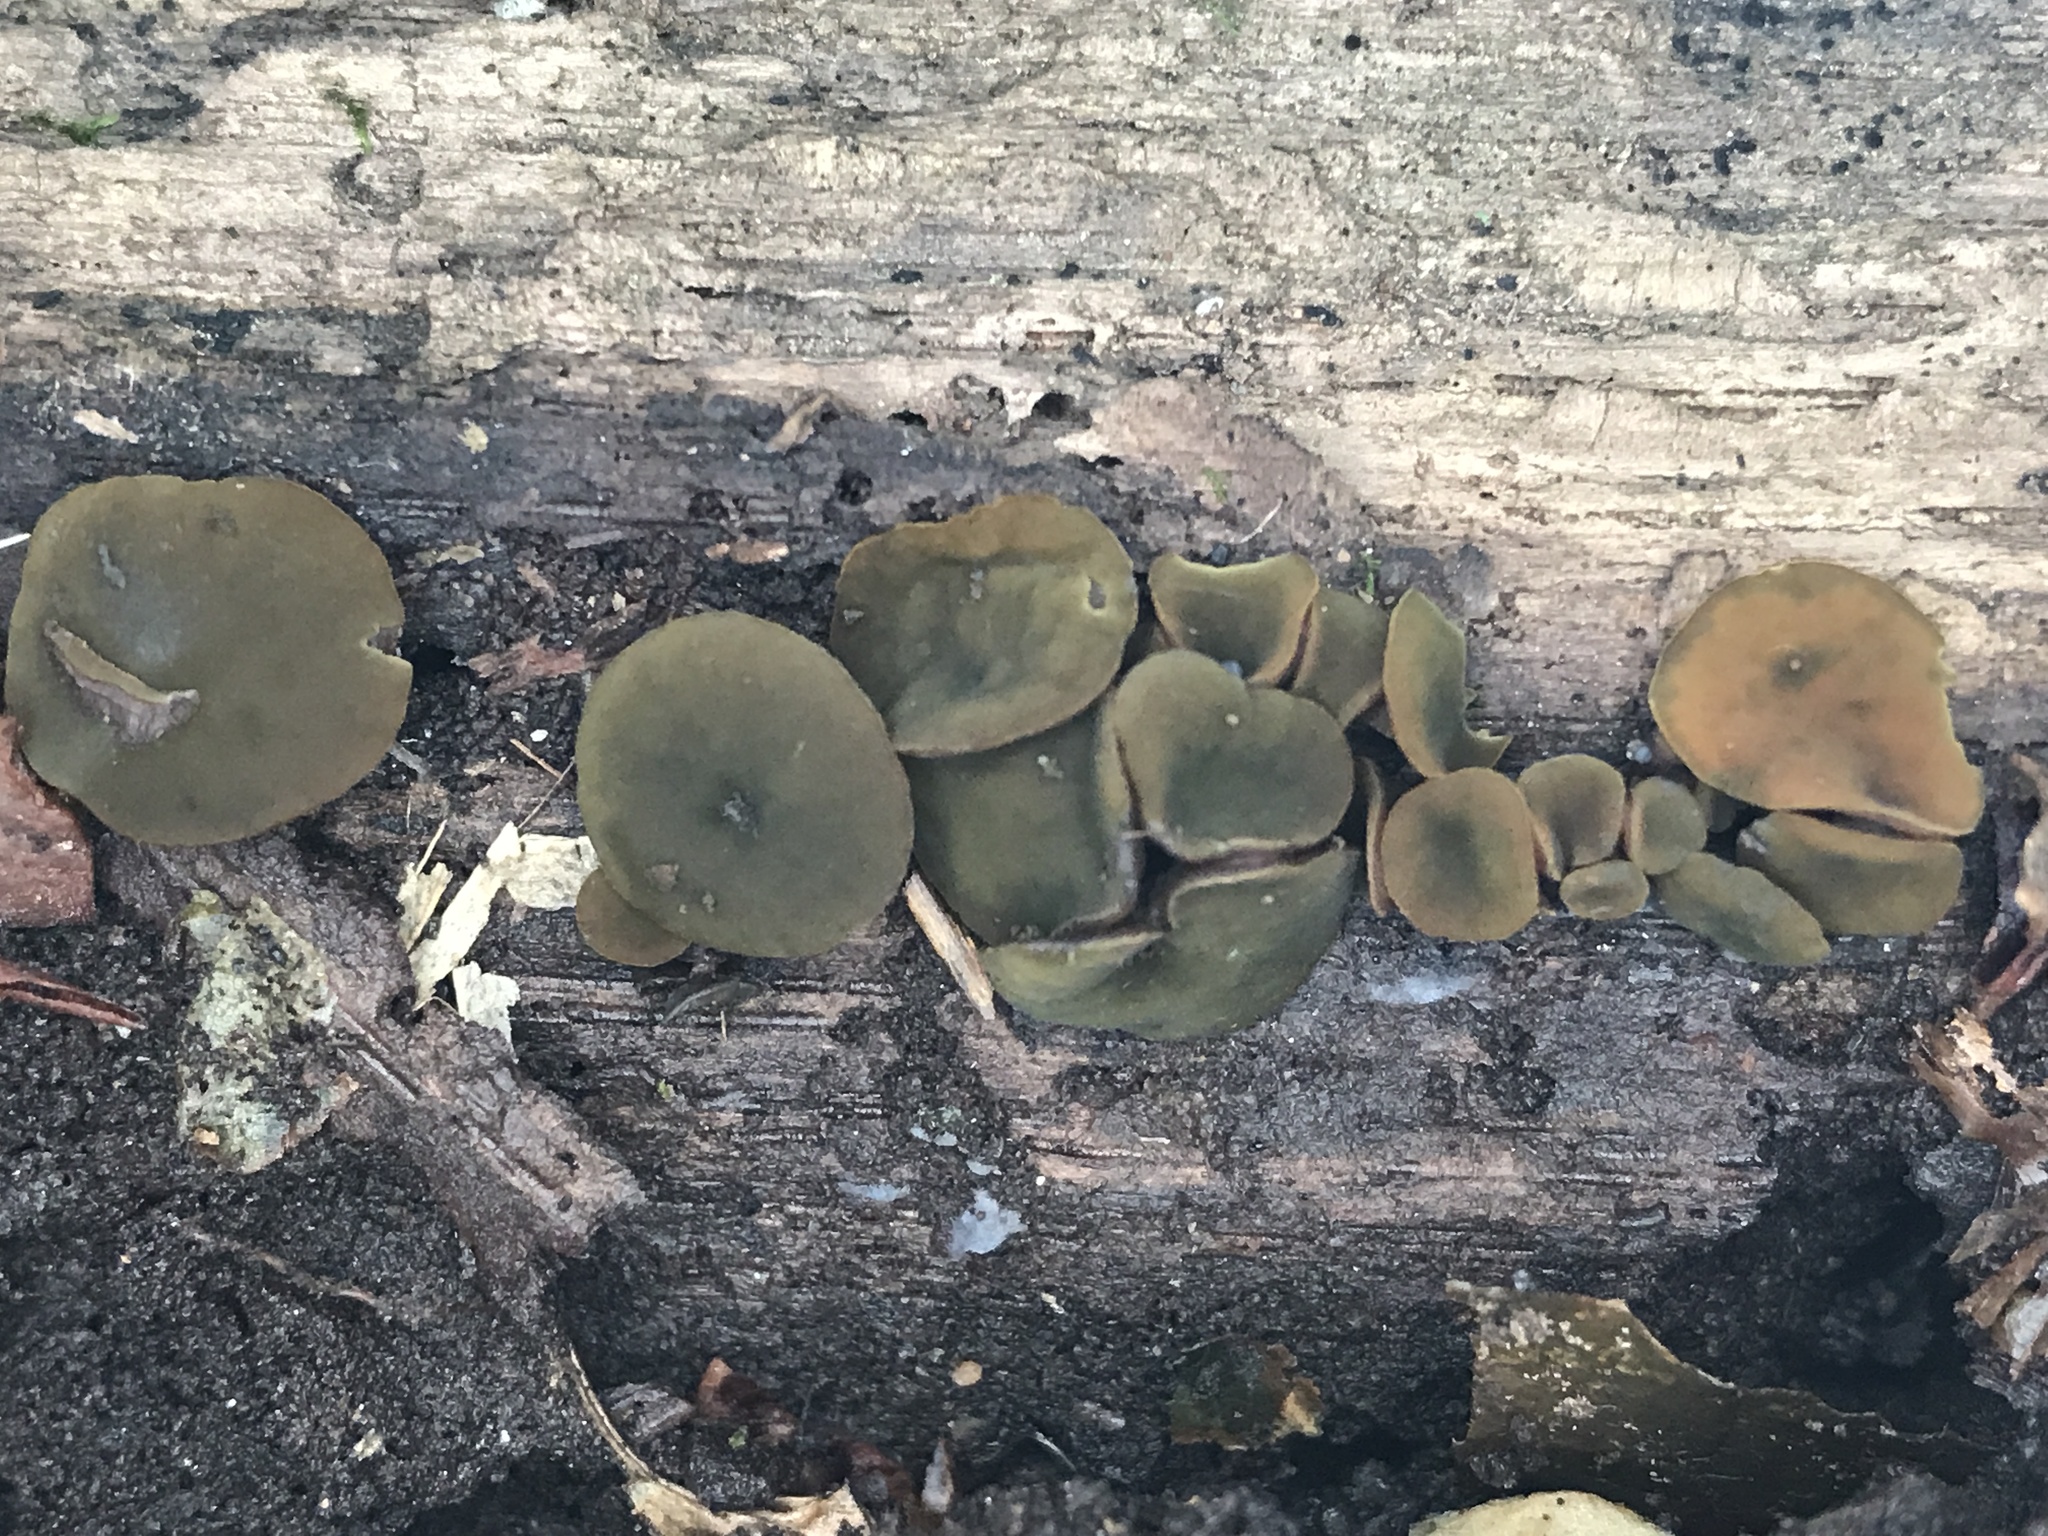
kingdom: Fungi
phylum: Ascomycota
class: Leotiomycetes
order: Helotiales
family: Cenangiaceae
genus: Chlorencoelia
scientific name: Chlorencoelia
